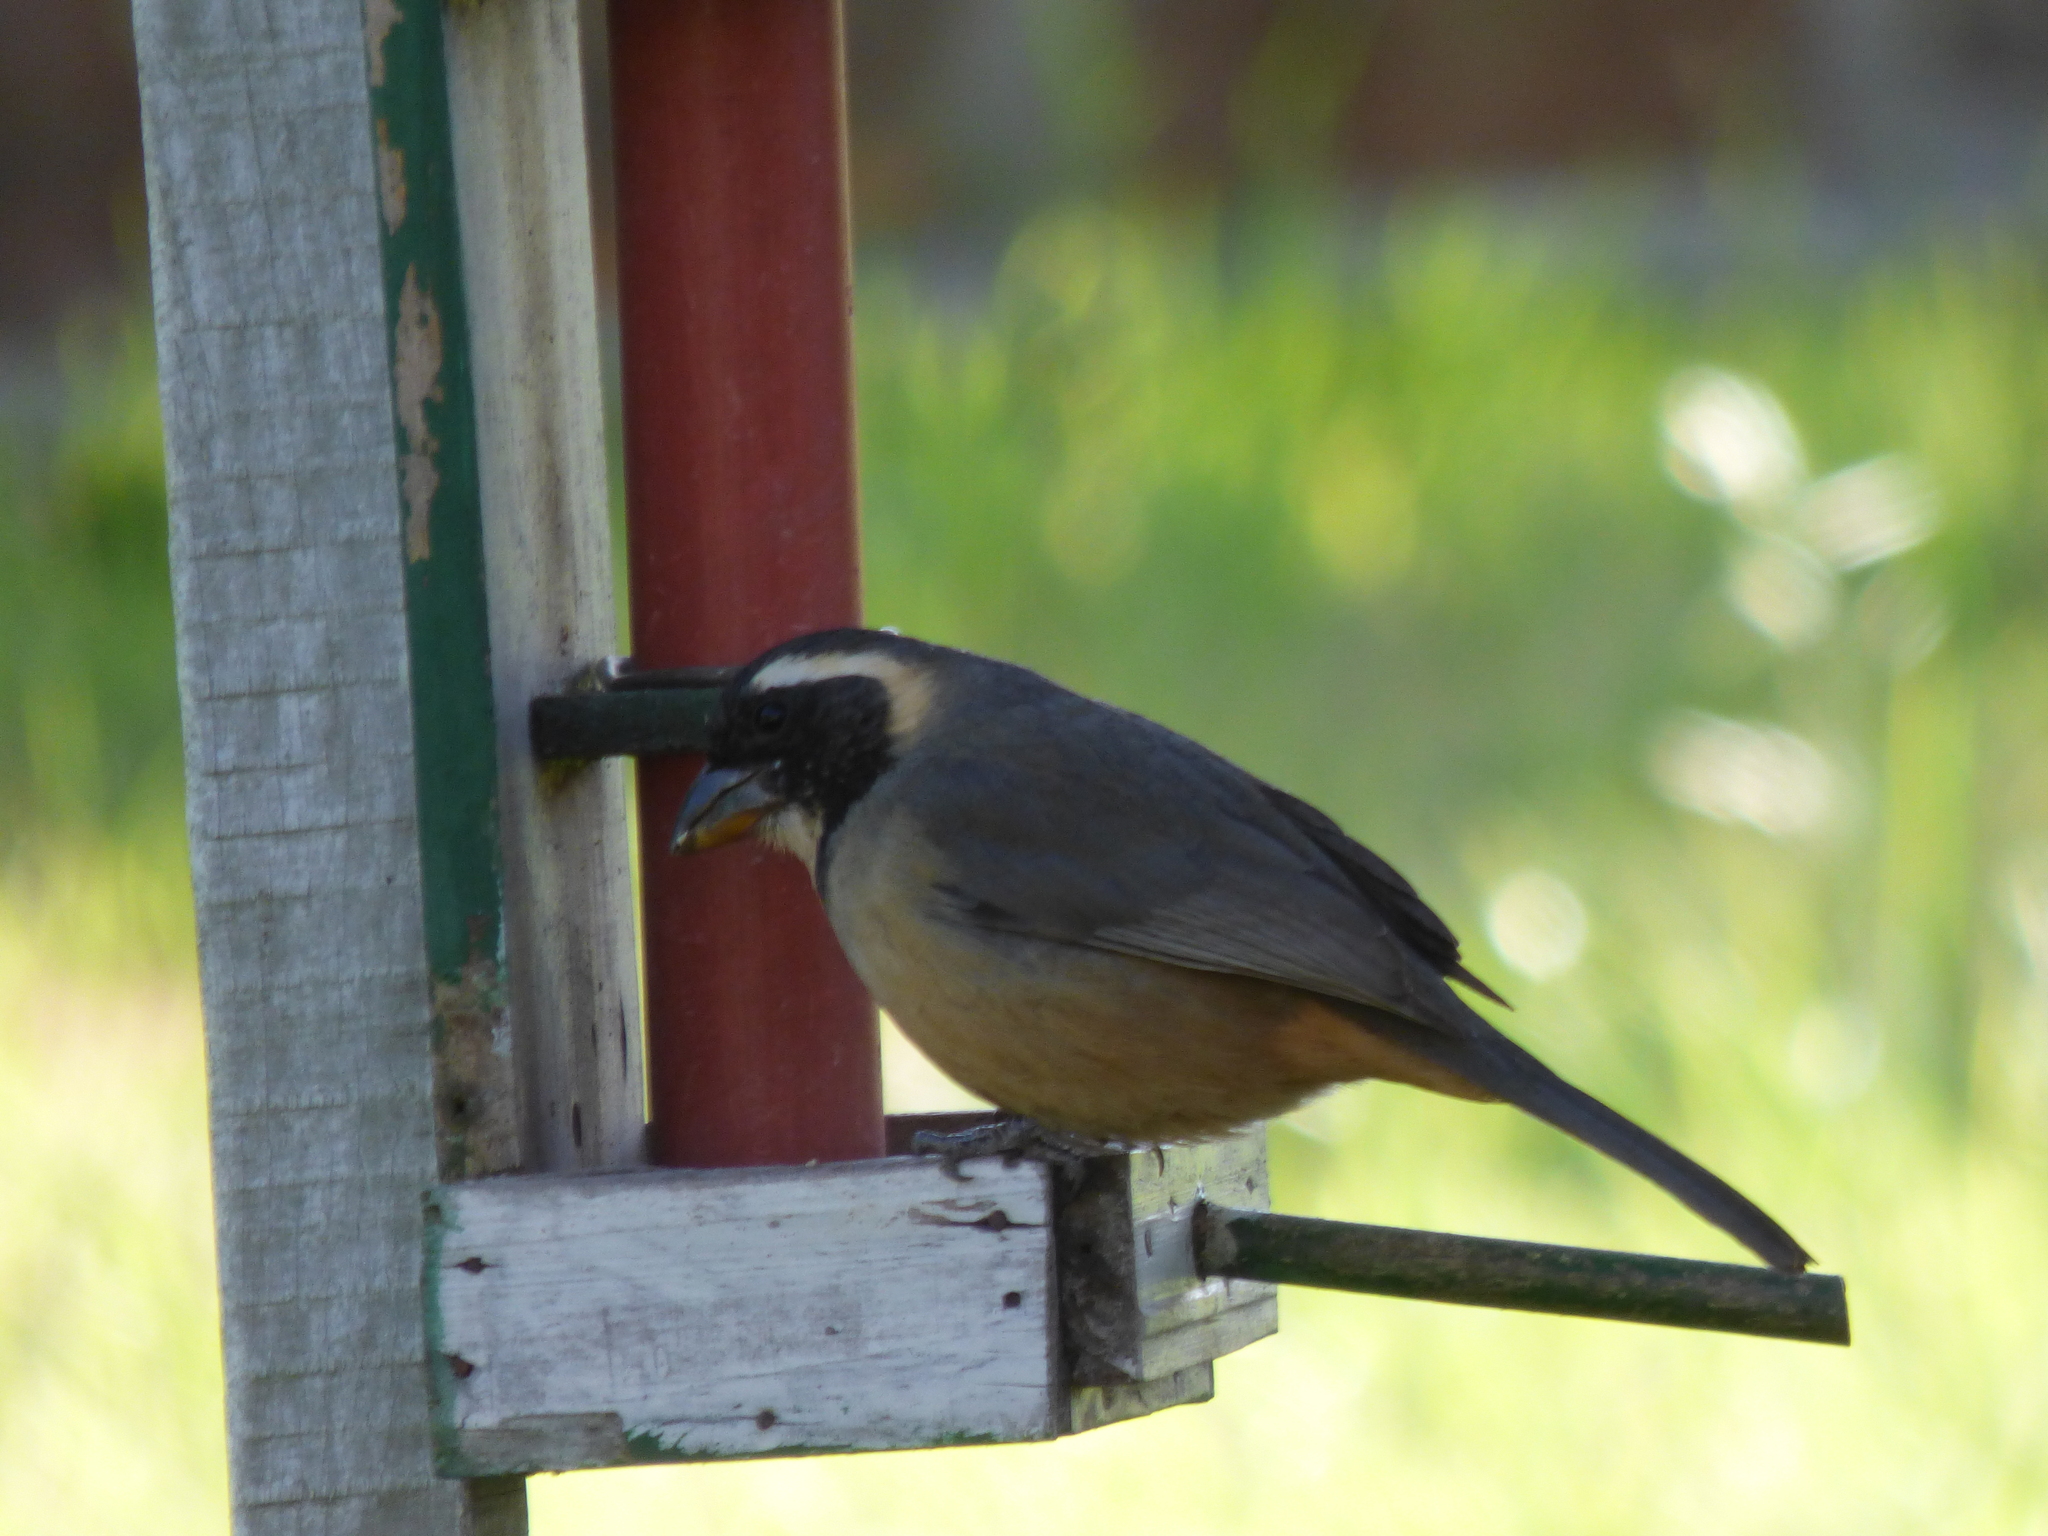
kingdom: Animalia
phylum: Chordata
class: Aves
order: Passeriformes
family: Thraupidae
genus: Saltator
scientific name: Saltator aurantiirostris
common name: Golden-billed saltator
